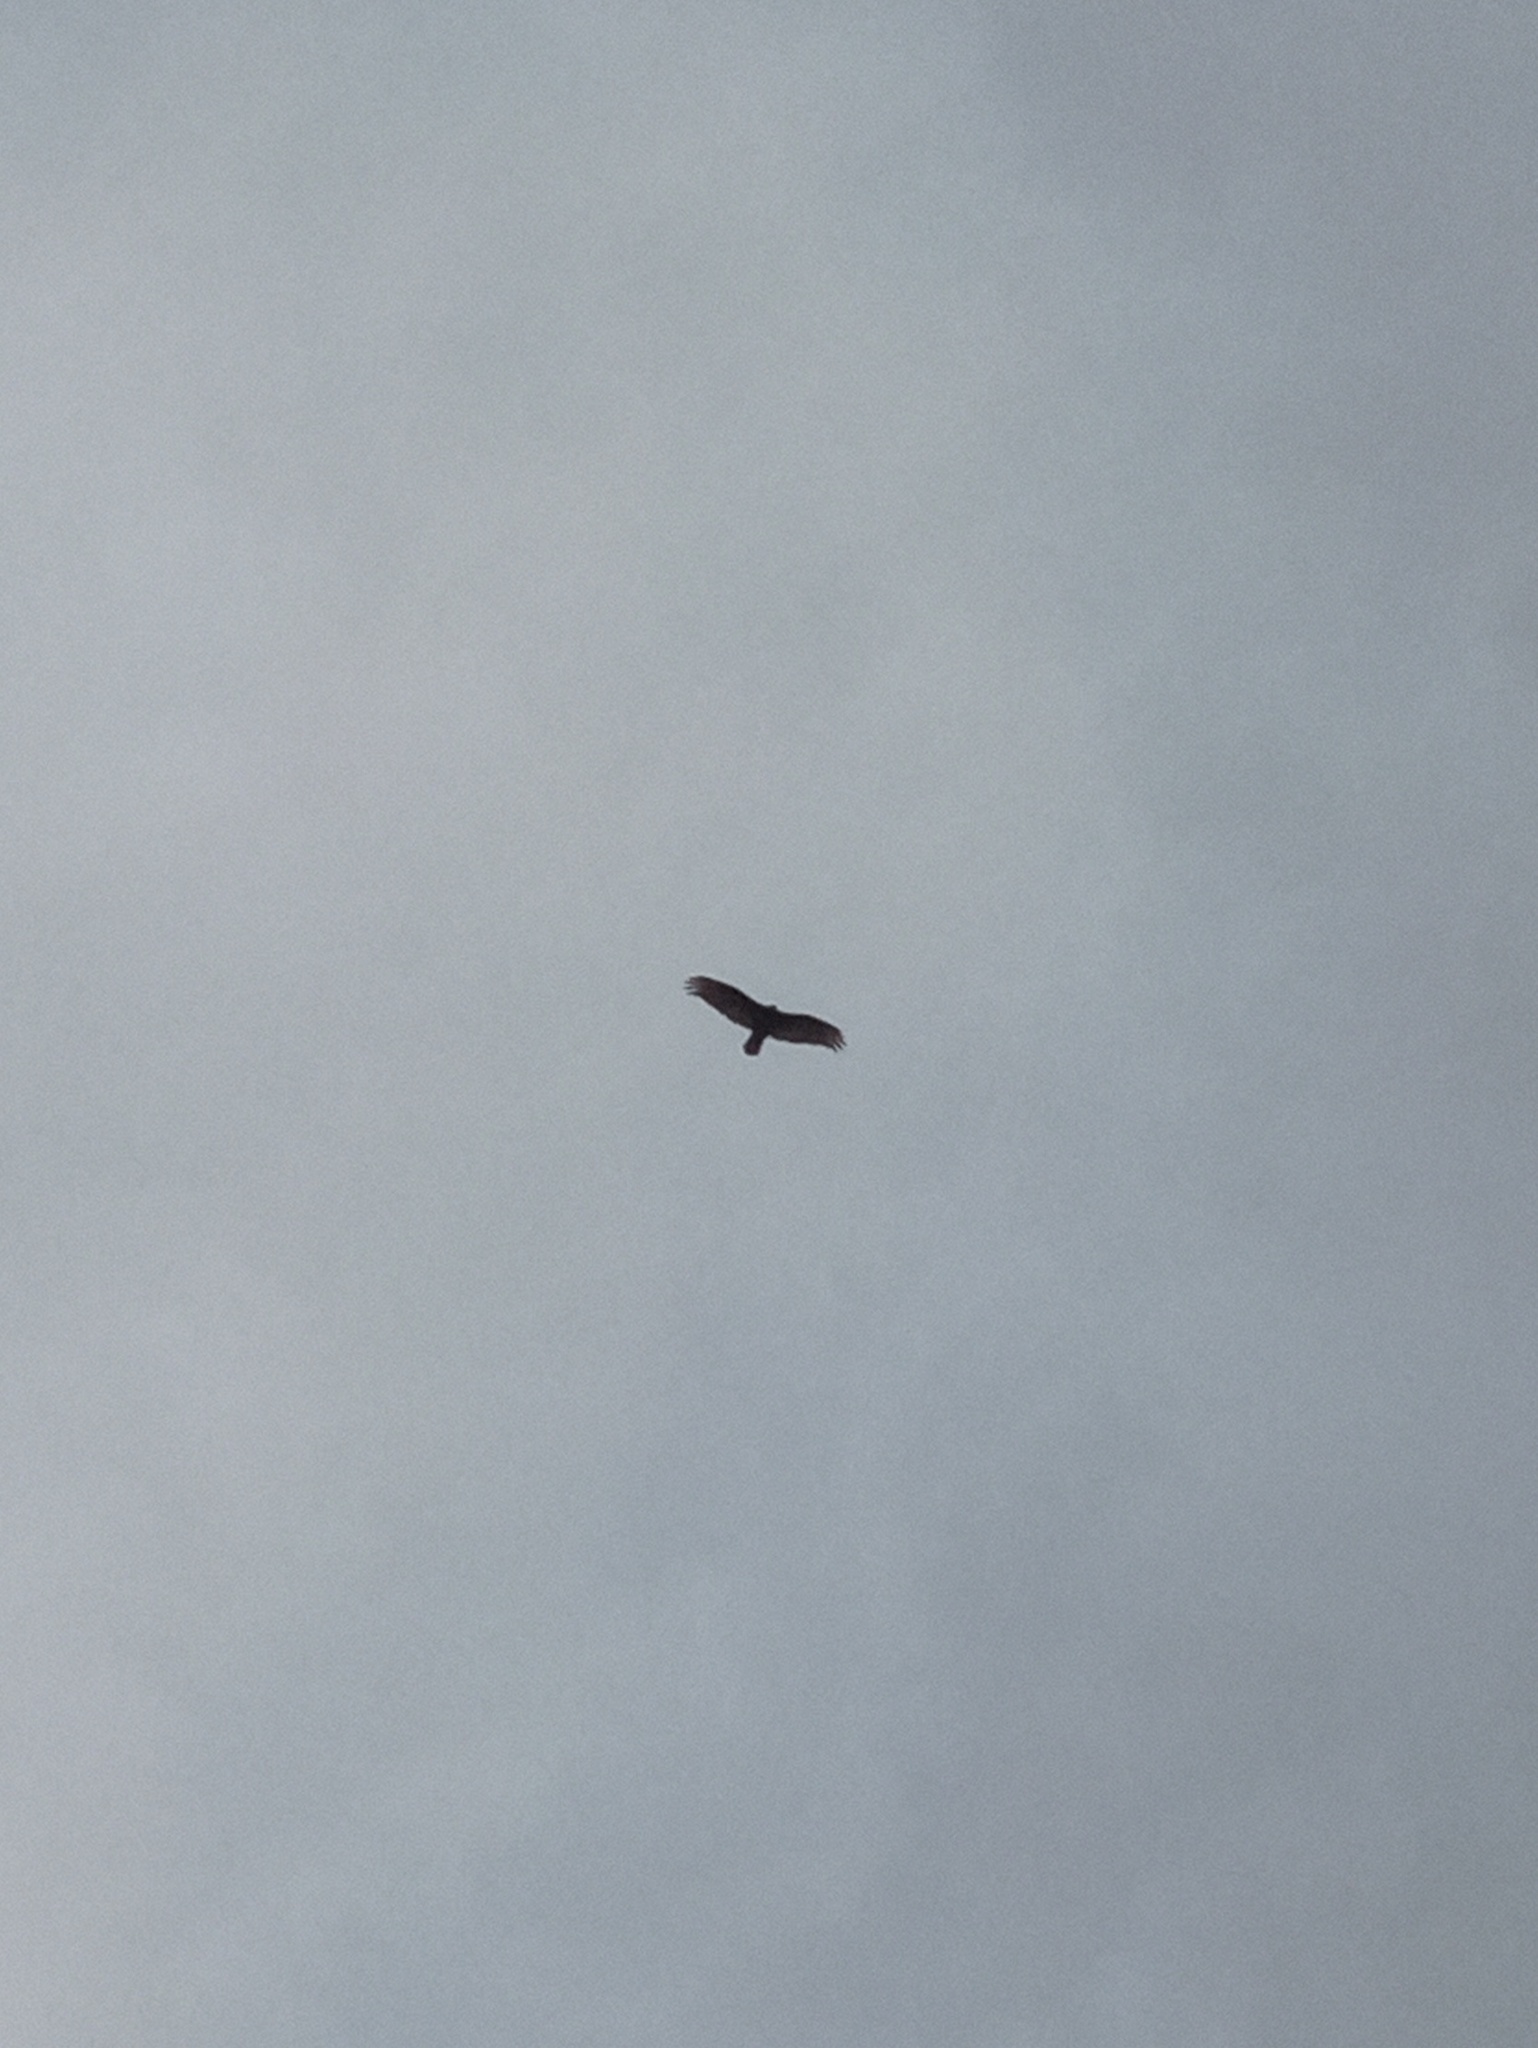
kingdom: Animalia
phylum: Chordata
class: Aves
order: Accipitriformes
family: Cathartidae
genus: Cathartes
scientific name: Cathartes aura
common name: Turkey vulture
